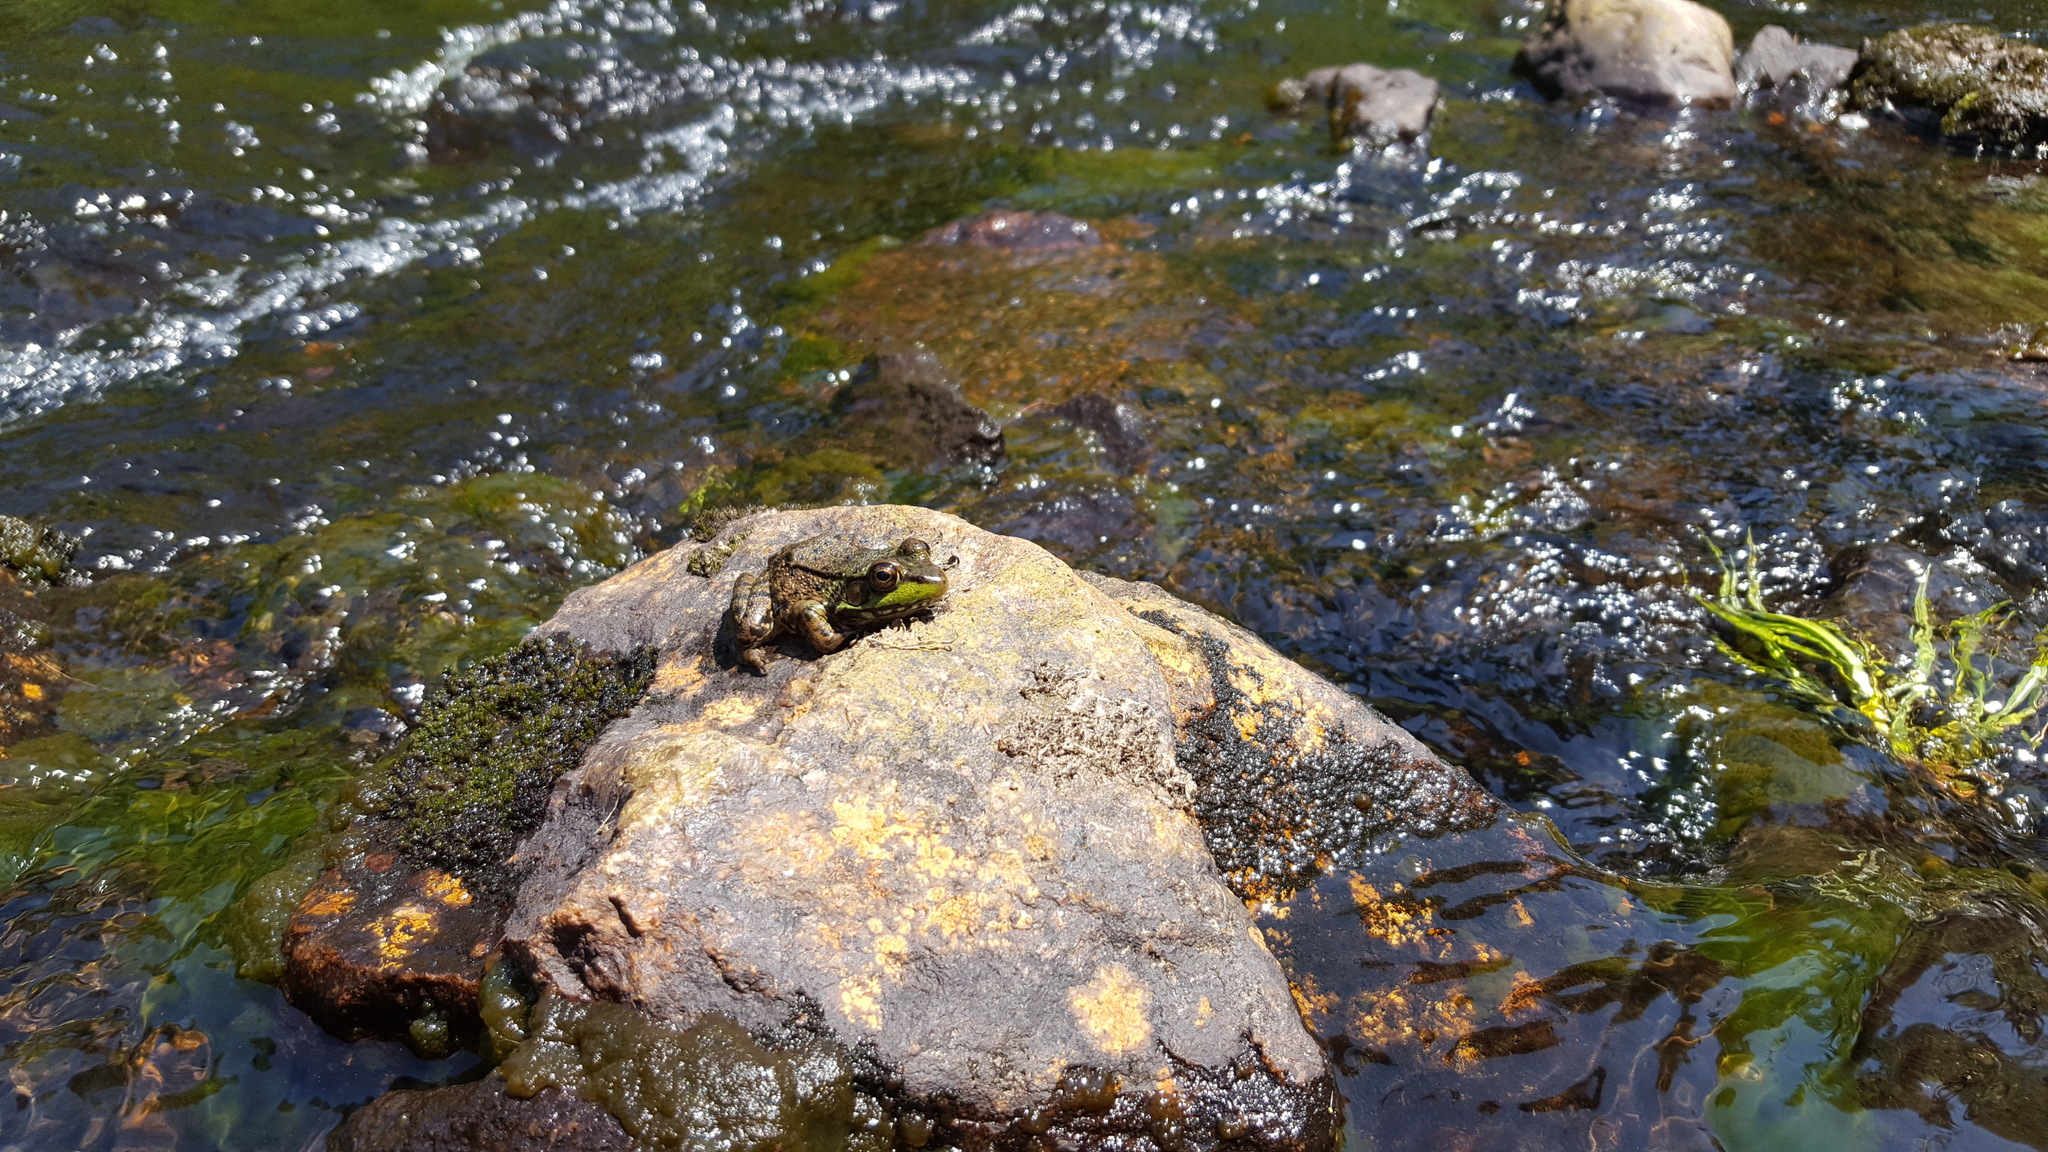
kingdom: Animalia
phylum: Chordata
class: Amphibia
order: Anura
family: Ranidae
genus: Lithobates
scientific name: Lithobates clamitans
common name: Green frog
